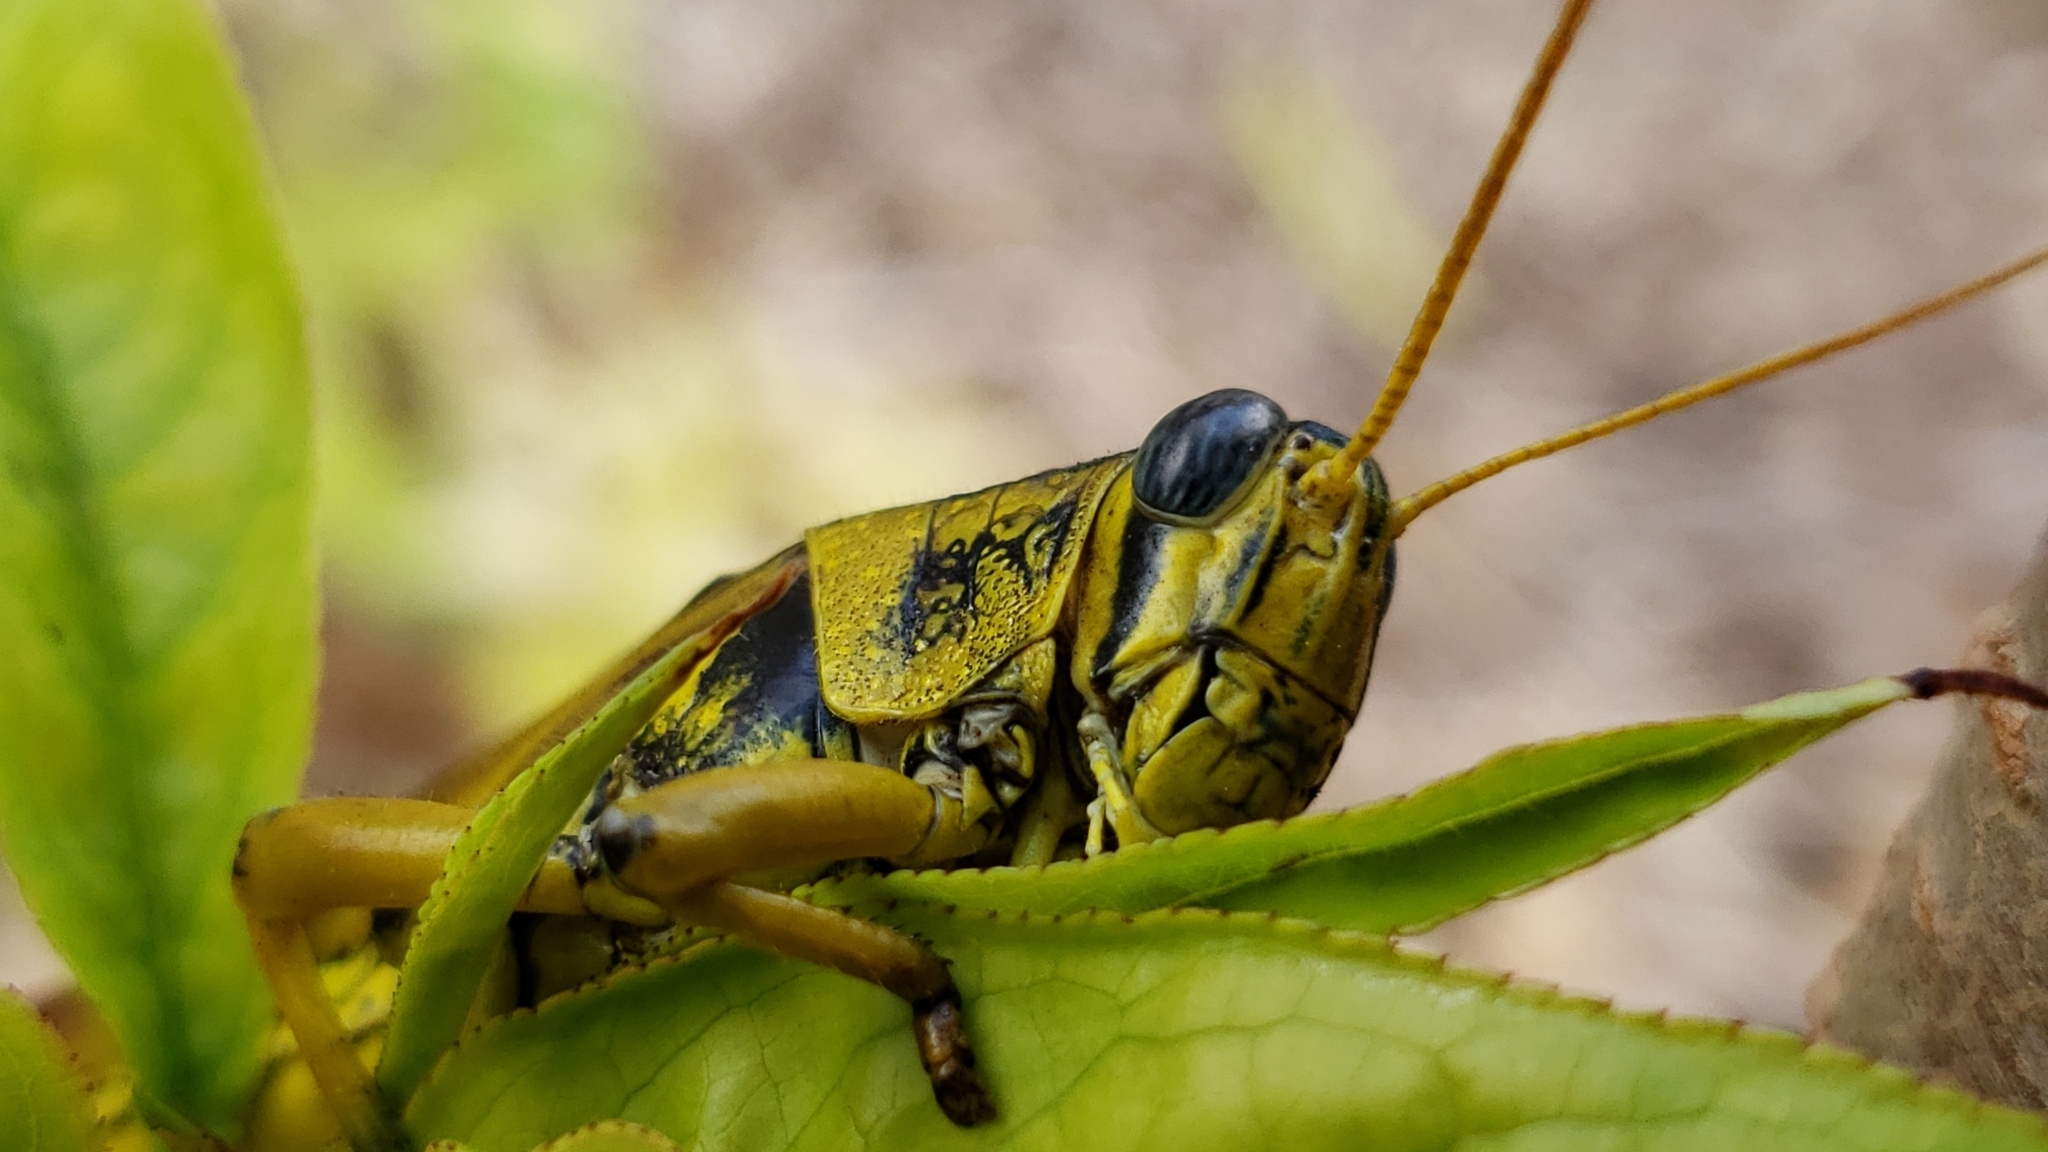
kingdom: Animalia
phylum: Arthropoda
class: Insecta
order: Orthoptera
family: Acrididae
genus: Schistocerca
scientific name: Schistocerca lineata
